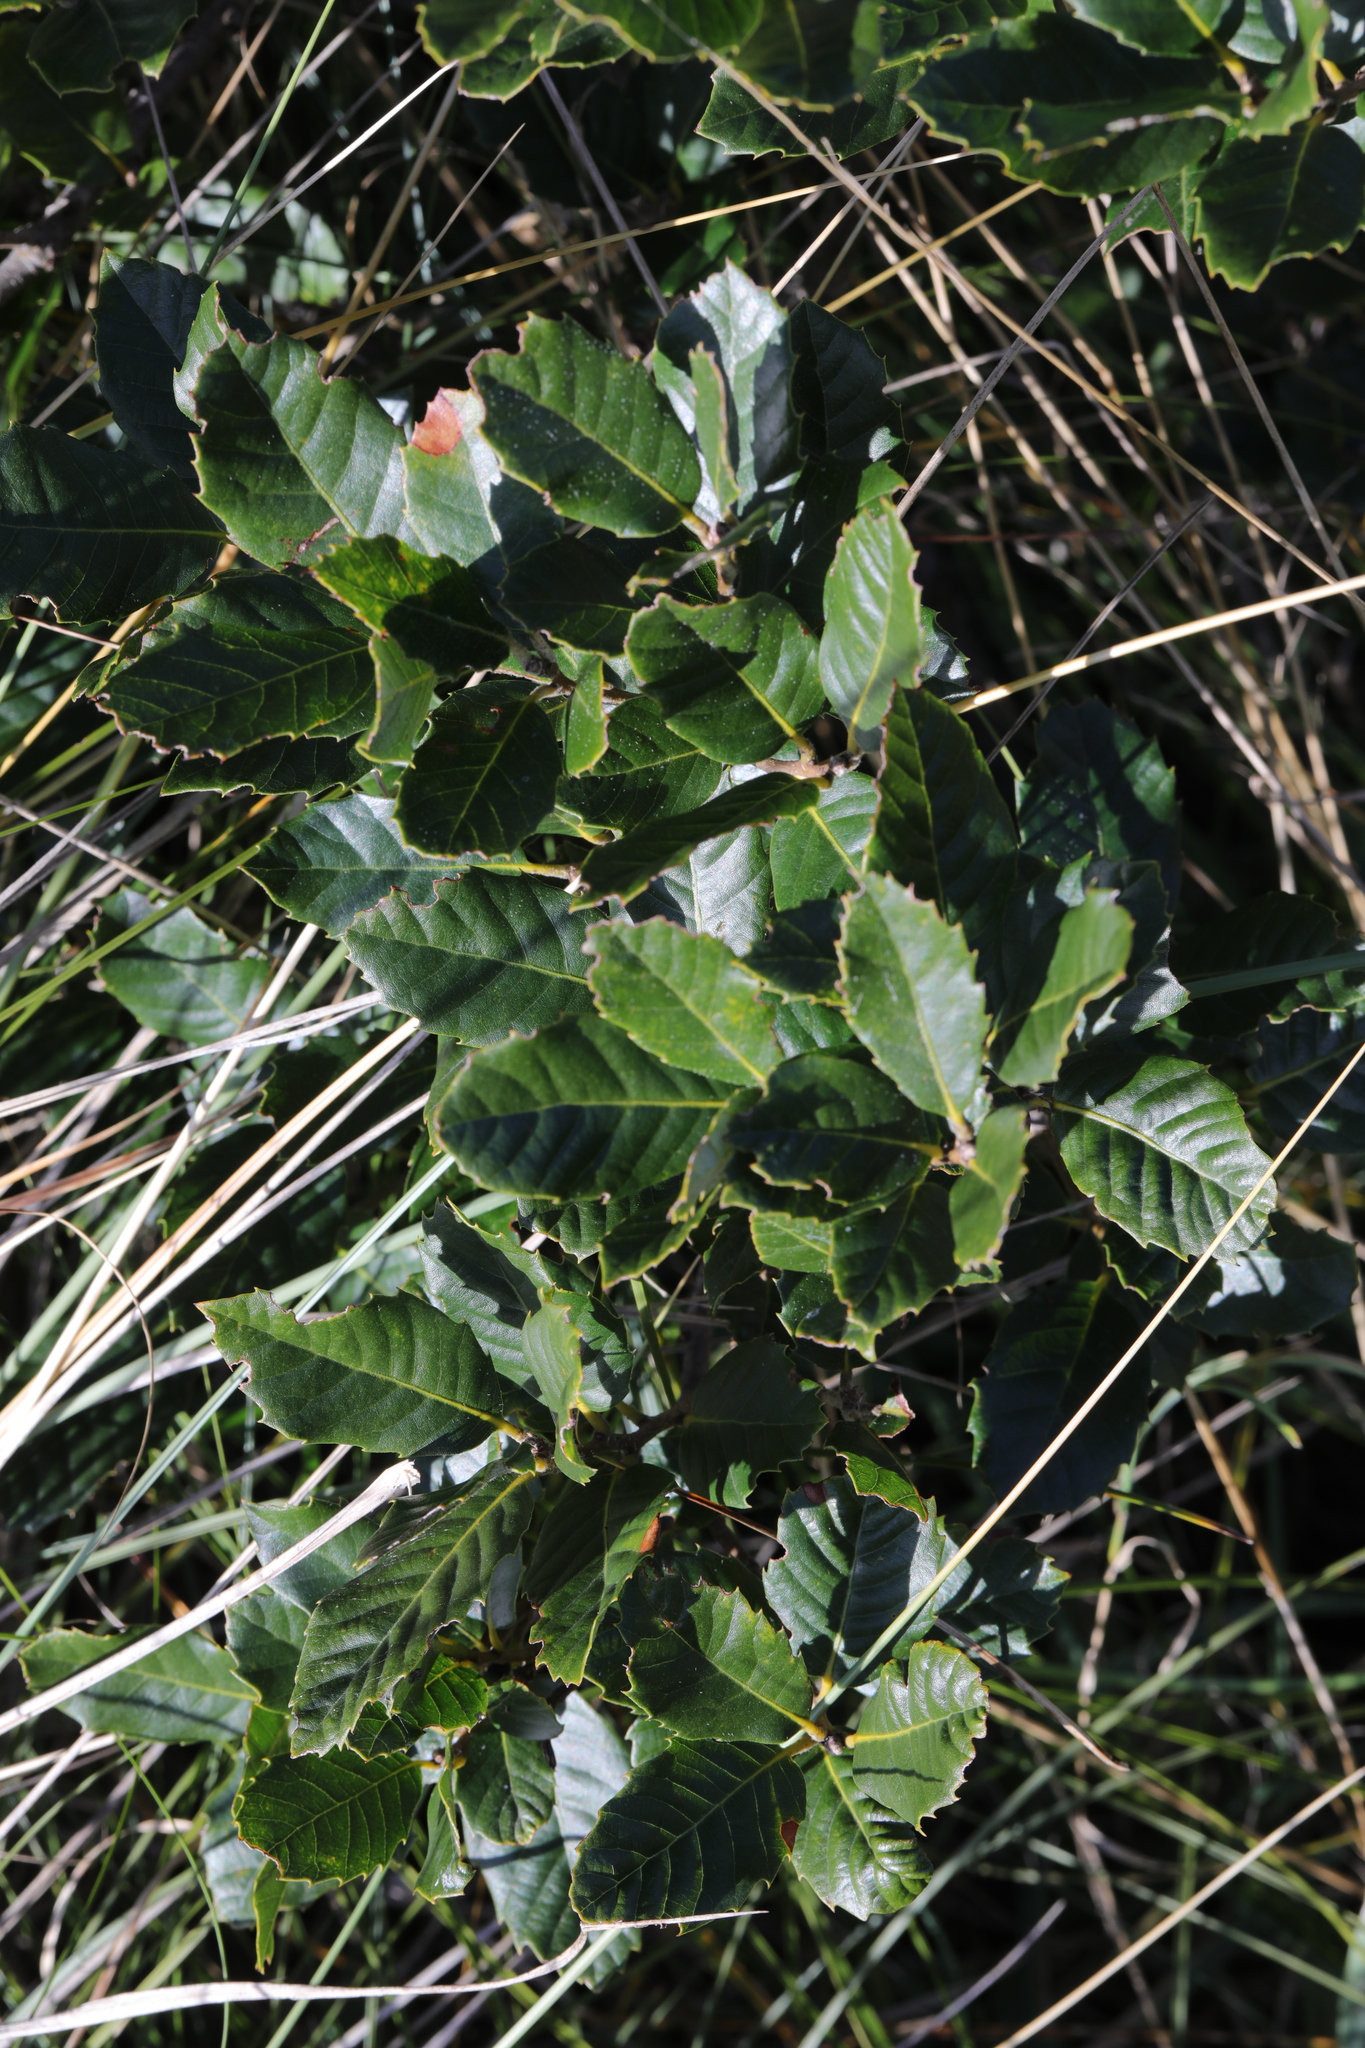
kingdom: Plantae
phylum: Tracheophyta
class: Magnoliopsida
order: Fagales
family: Fagaceae
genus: Quercus
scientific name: Quercus ilex
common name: Evergreen oak
